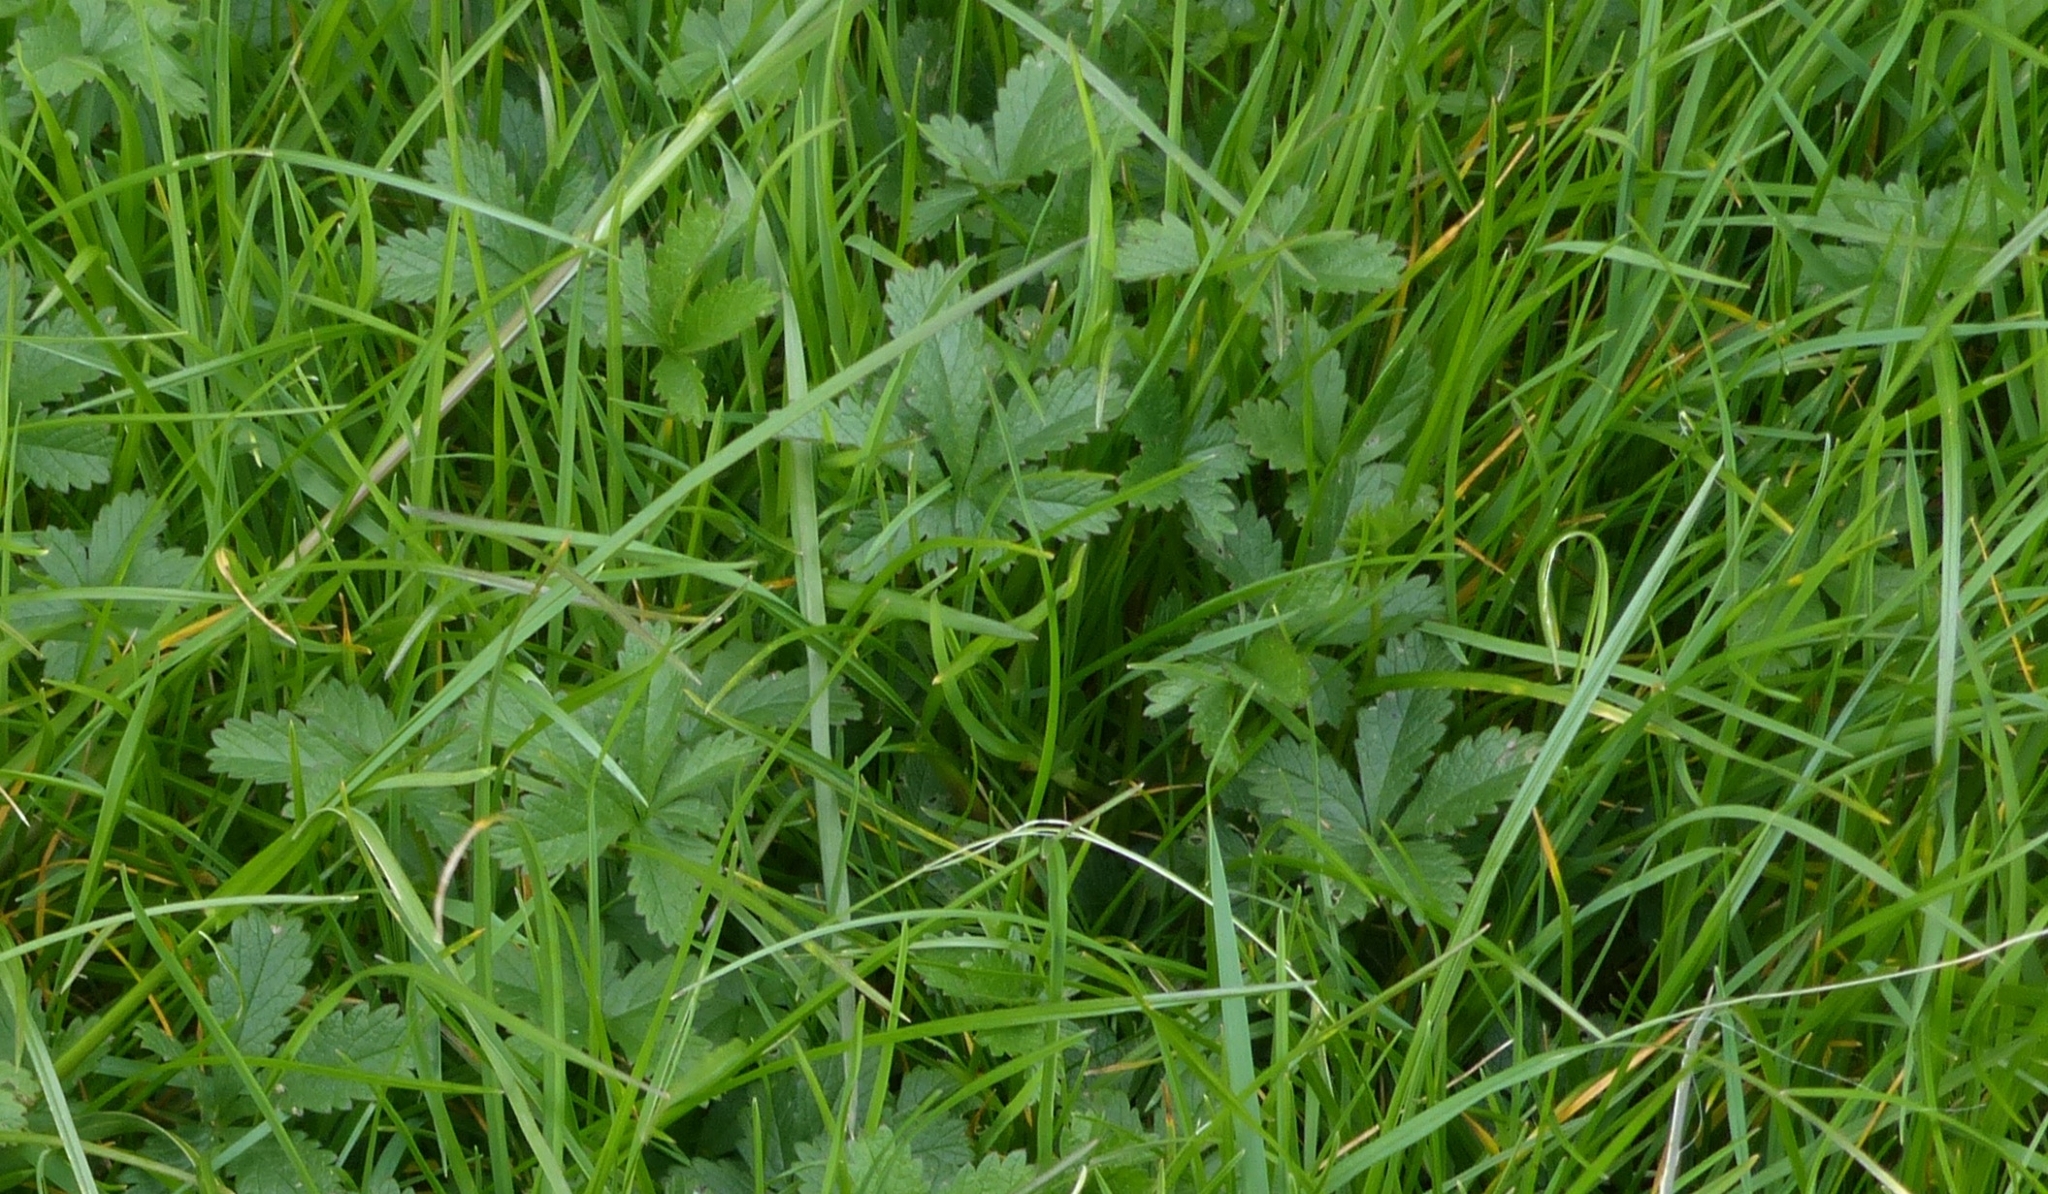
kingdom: Plantae
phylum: Tracheophyta
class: Magnoliopsida
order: Rosales
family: Rosaceae
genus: Potentilla
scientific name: Potentilla reptans
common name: Creeping cinquefoil
